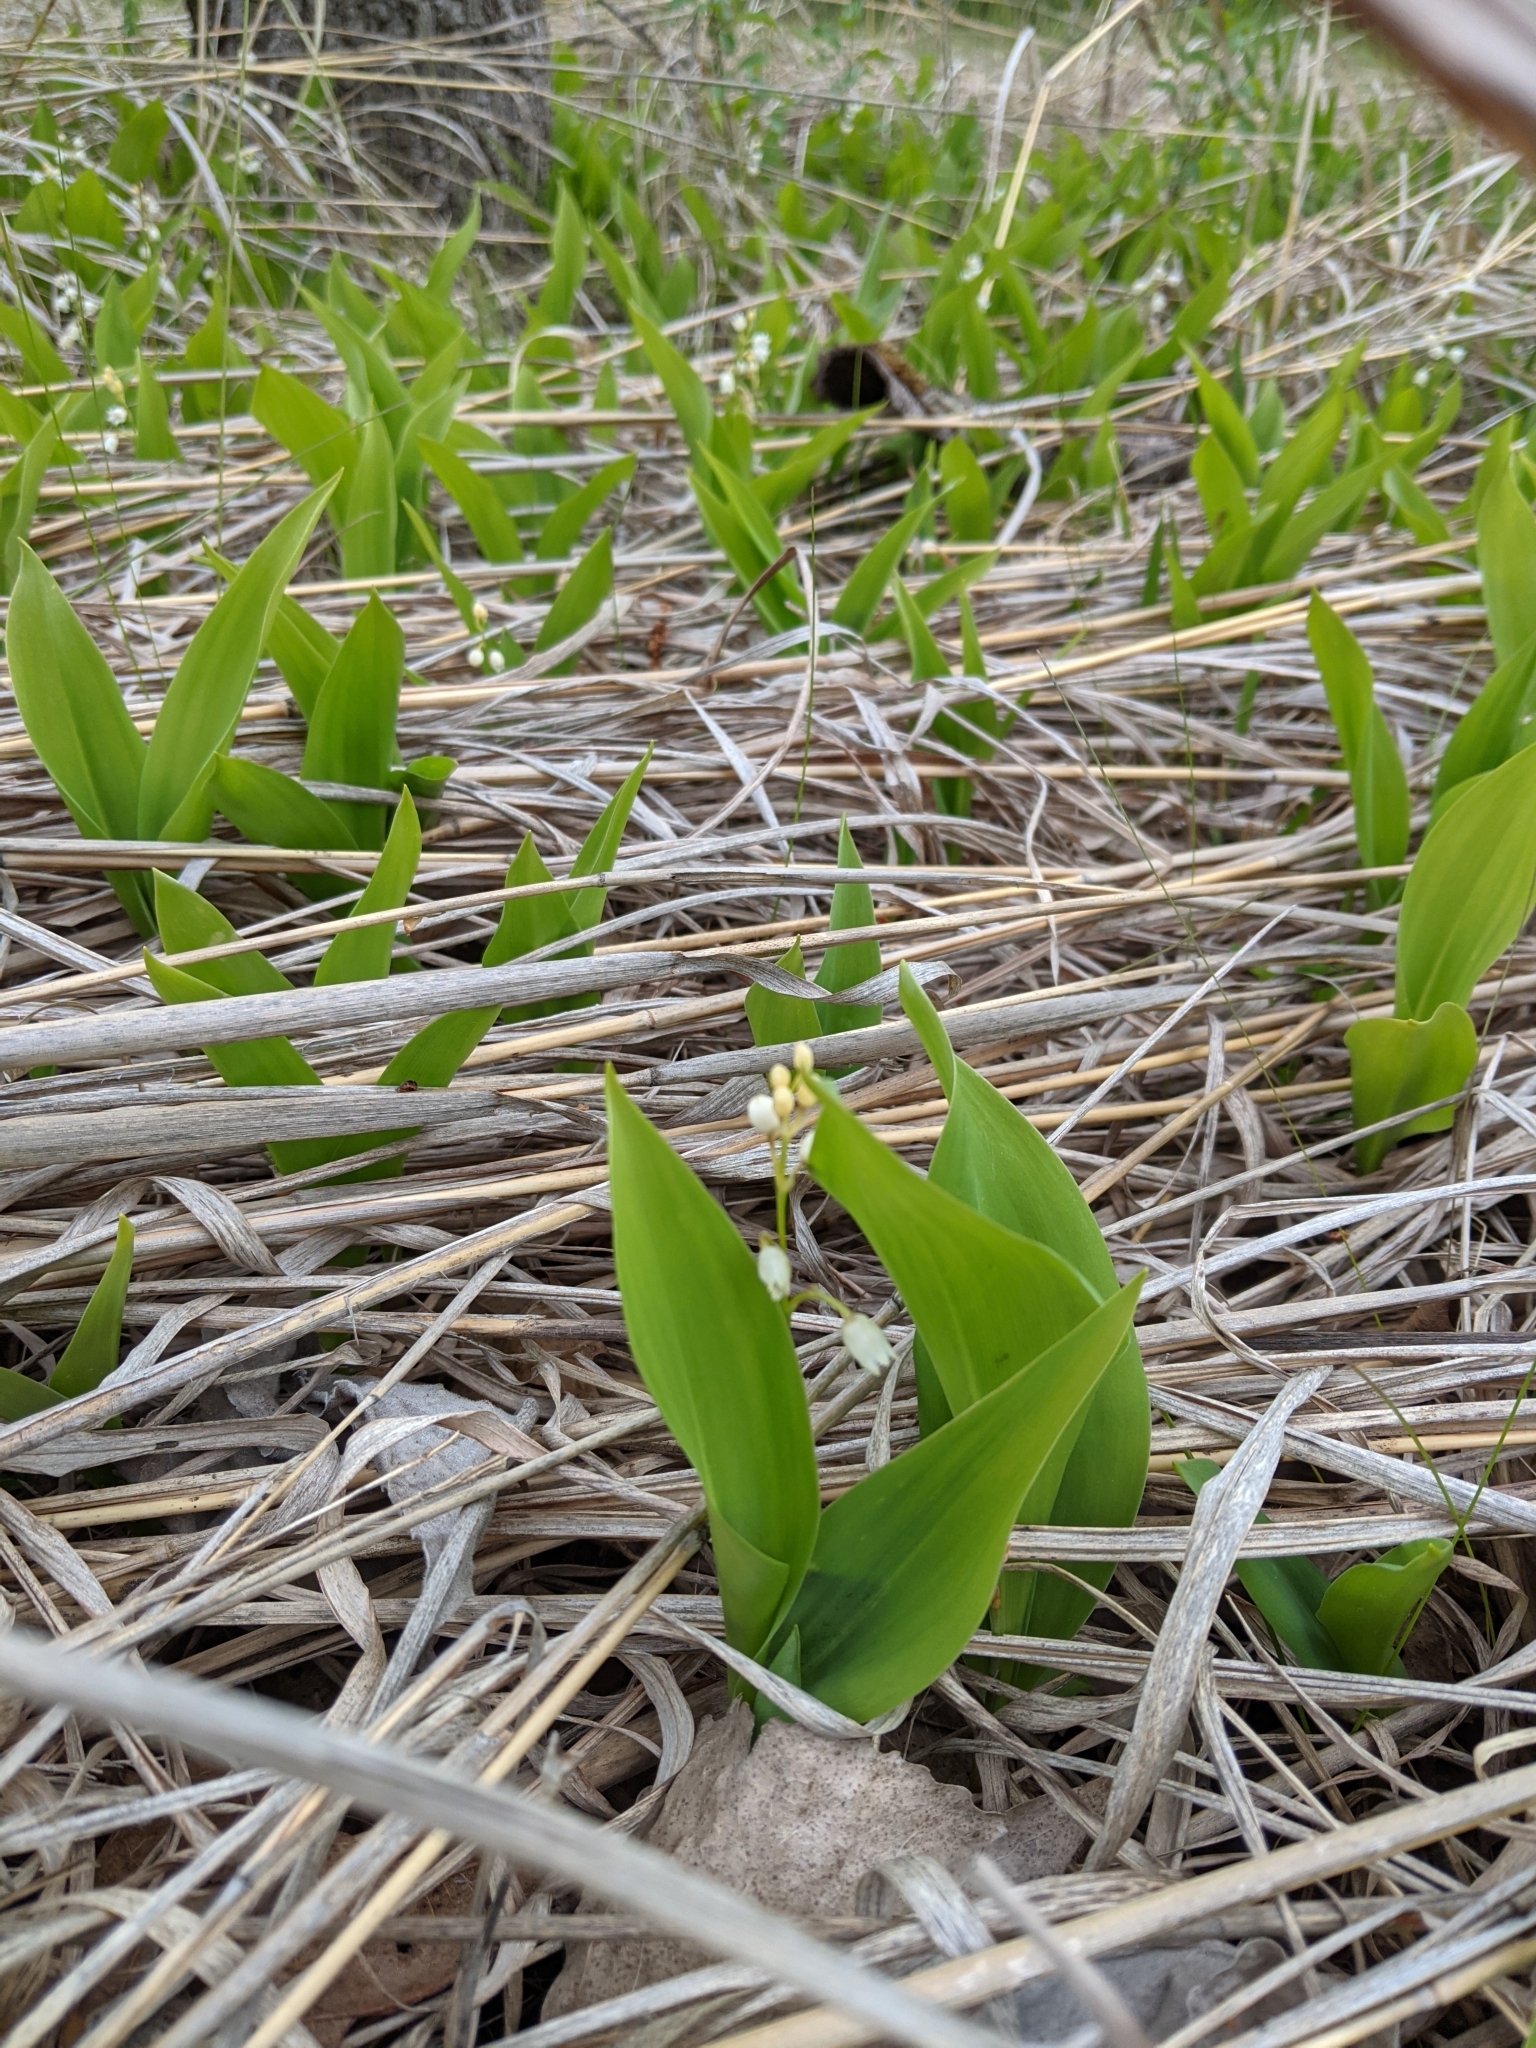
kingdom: Plantae
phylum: Tracheophyta
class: Liliopsida
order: Asparagales
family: Asparagaceae
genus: Convallaria
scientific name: Convallaria majalis
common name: Lily-of-the-valley
